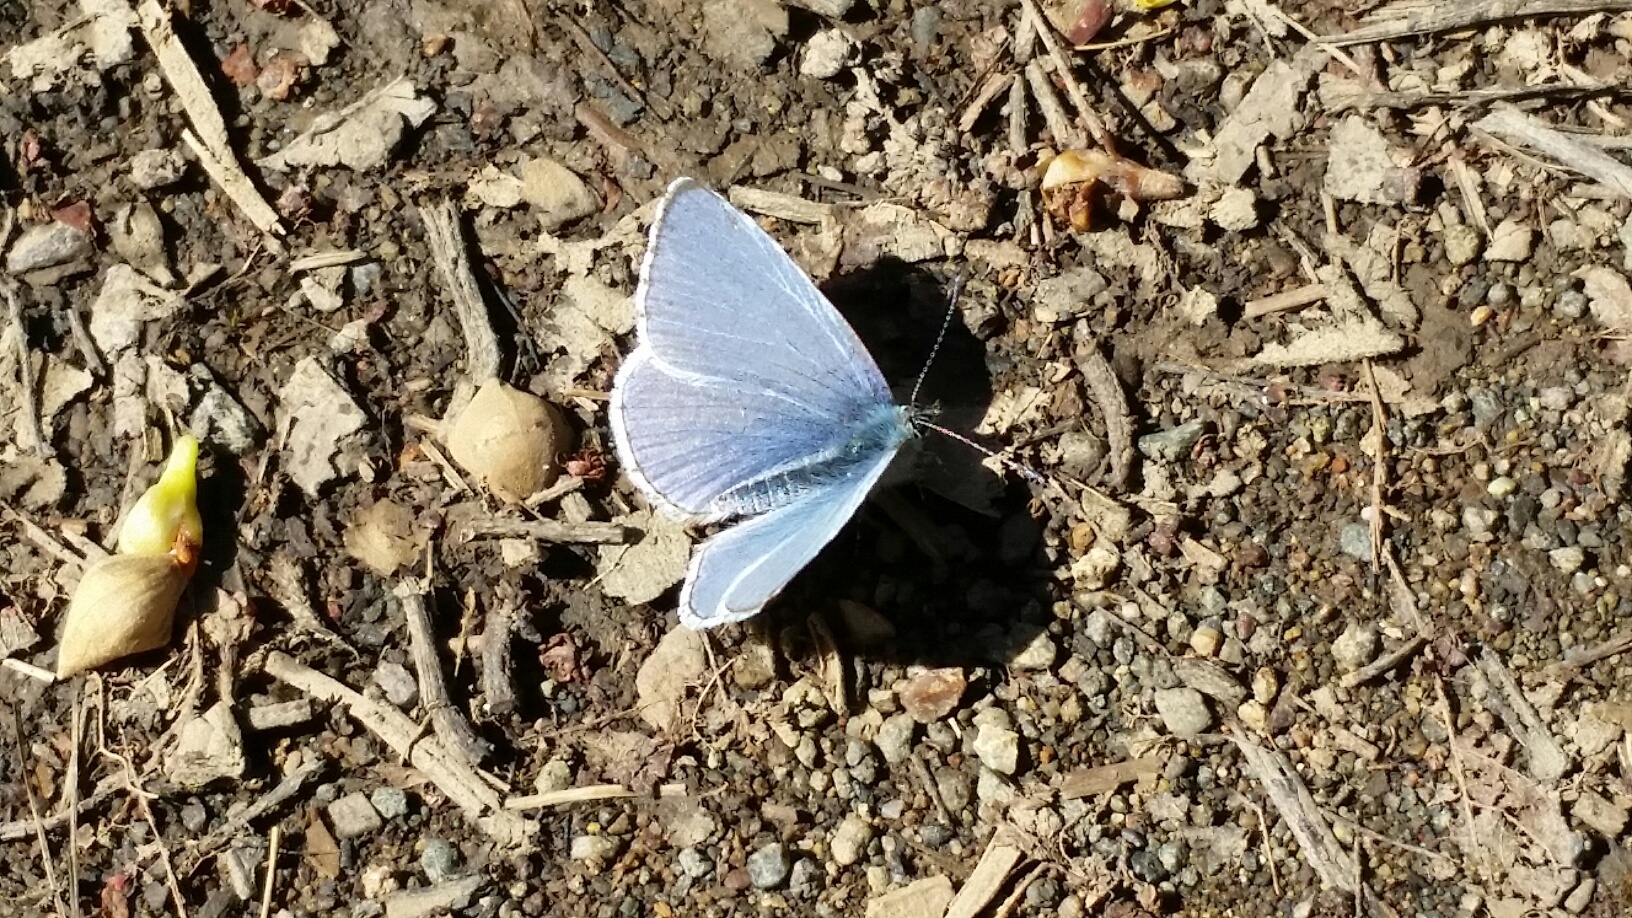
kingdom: Animalia
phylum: Arthropoda
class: Insecta
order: Lepidoptera
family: Lycaenidae
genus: Celastrina
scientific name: Celastrina ladon
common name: Spring azure
